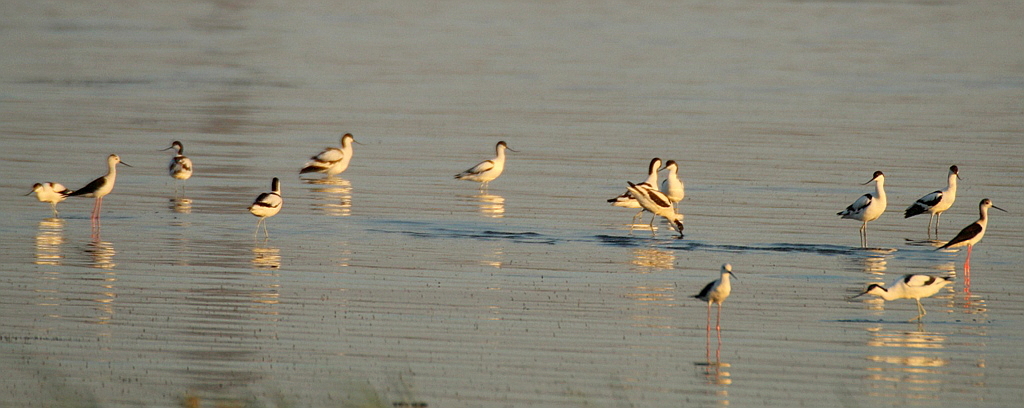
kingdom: Animalia
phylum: Chordata
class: Aves
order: Charadriiformes
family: Recurvirostridae
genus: Recurvirostra
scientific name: Recurvirostra avosetta
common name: Pied avocet
